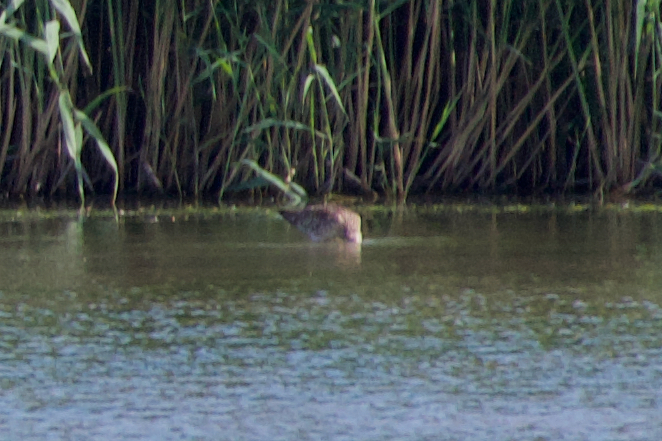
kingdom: Animalia
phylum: Chordata
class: Aves
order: Charadriiformes
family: Scolopacidae
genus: Numenius
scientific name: Numenius arquata
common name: Eurasian curlew
